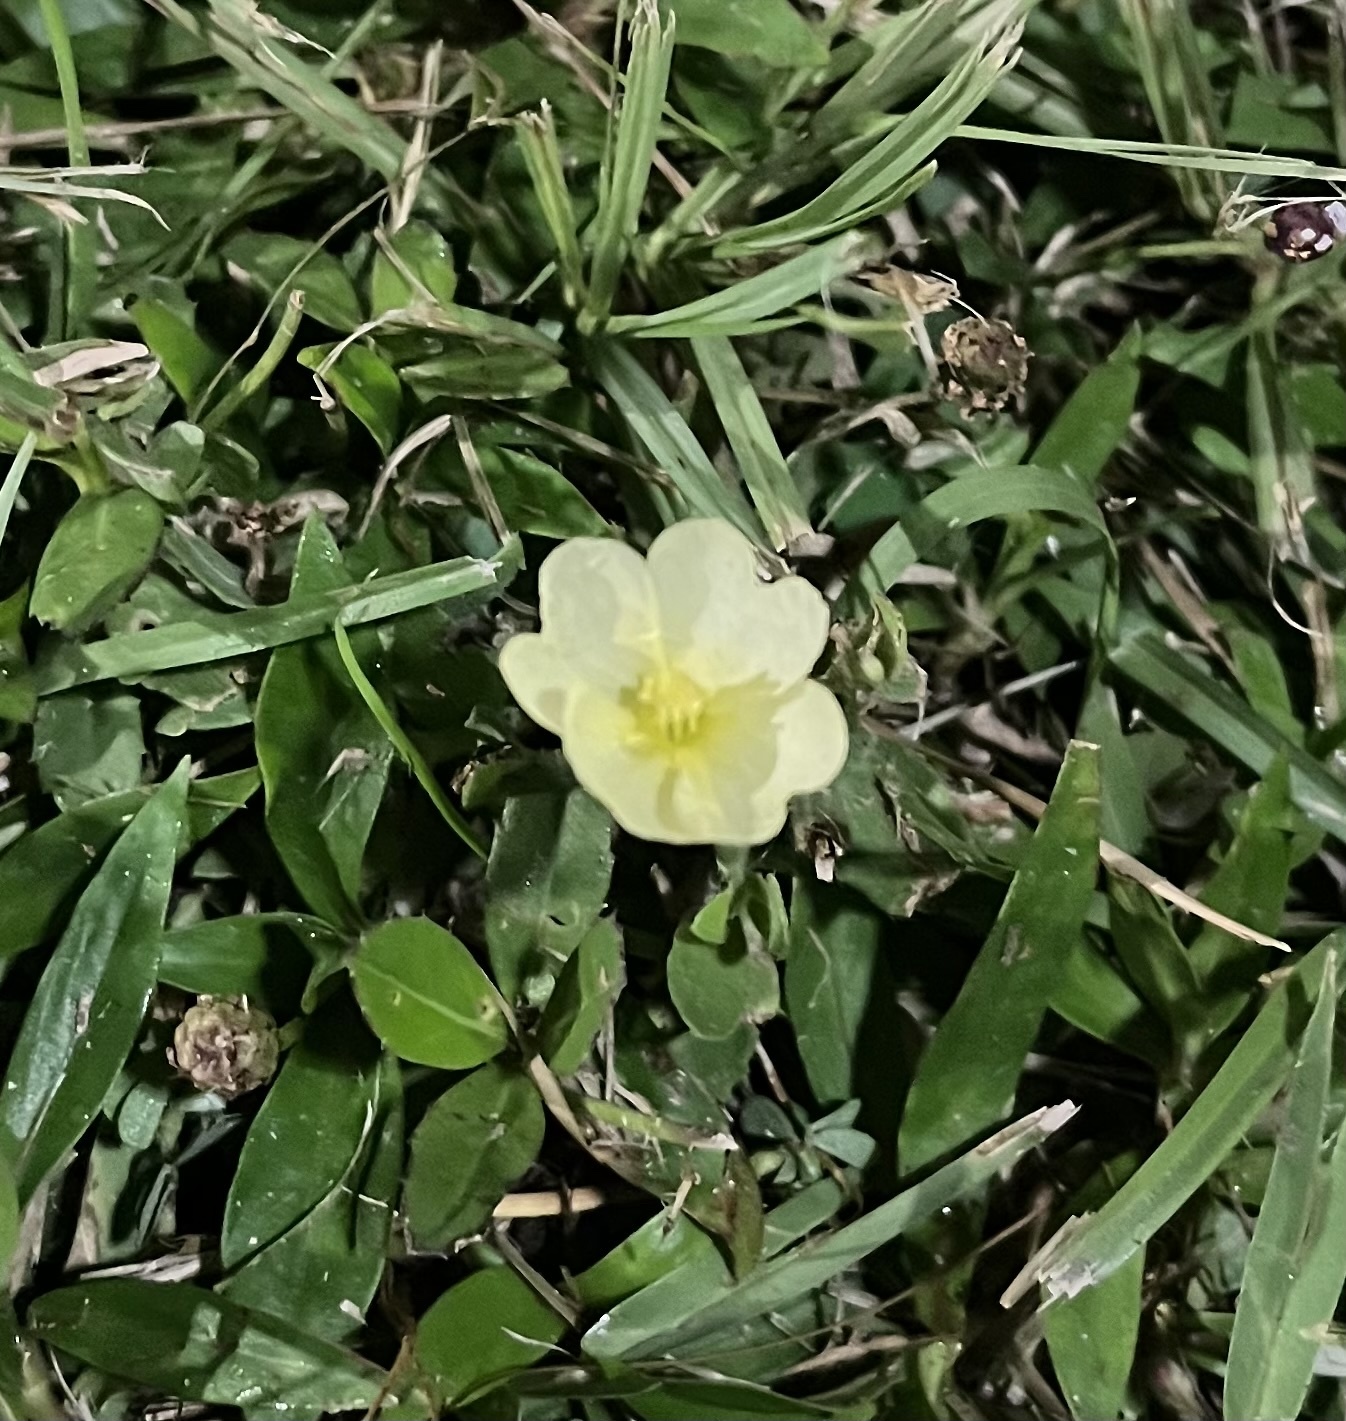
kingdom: Plantae
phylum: Tracheophyta
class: Magnoliopsida
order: Myrtales
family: Onagraceae
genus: Oenothera
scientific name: Oenothera
